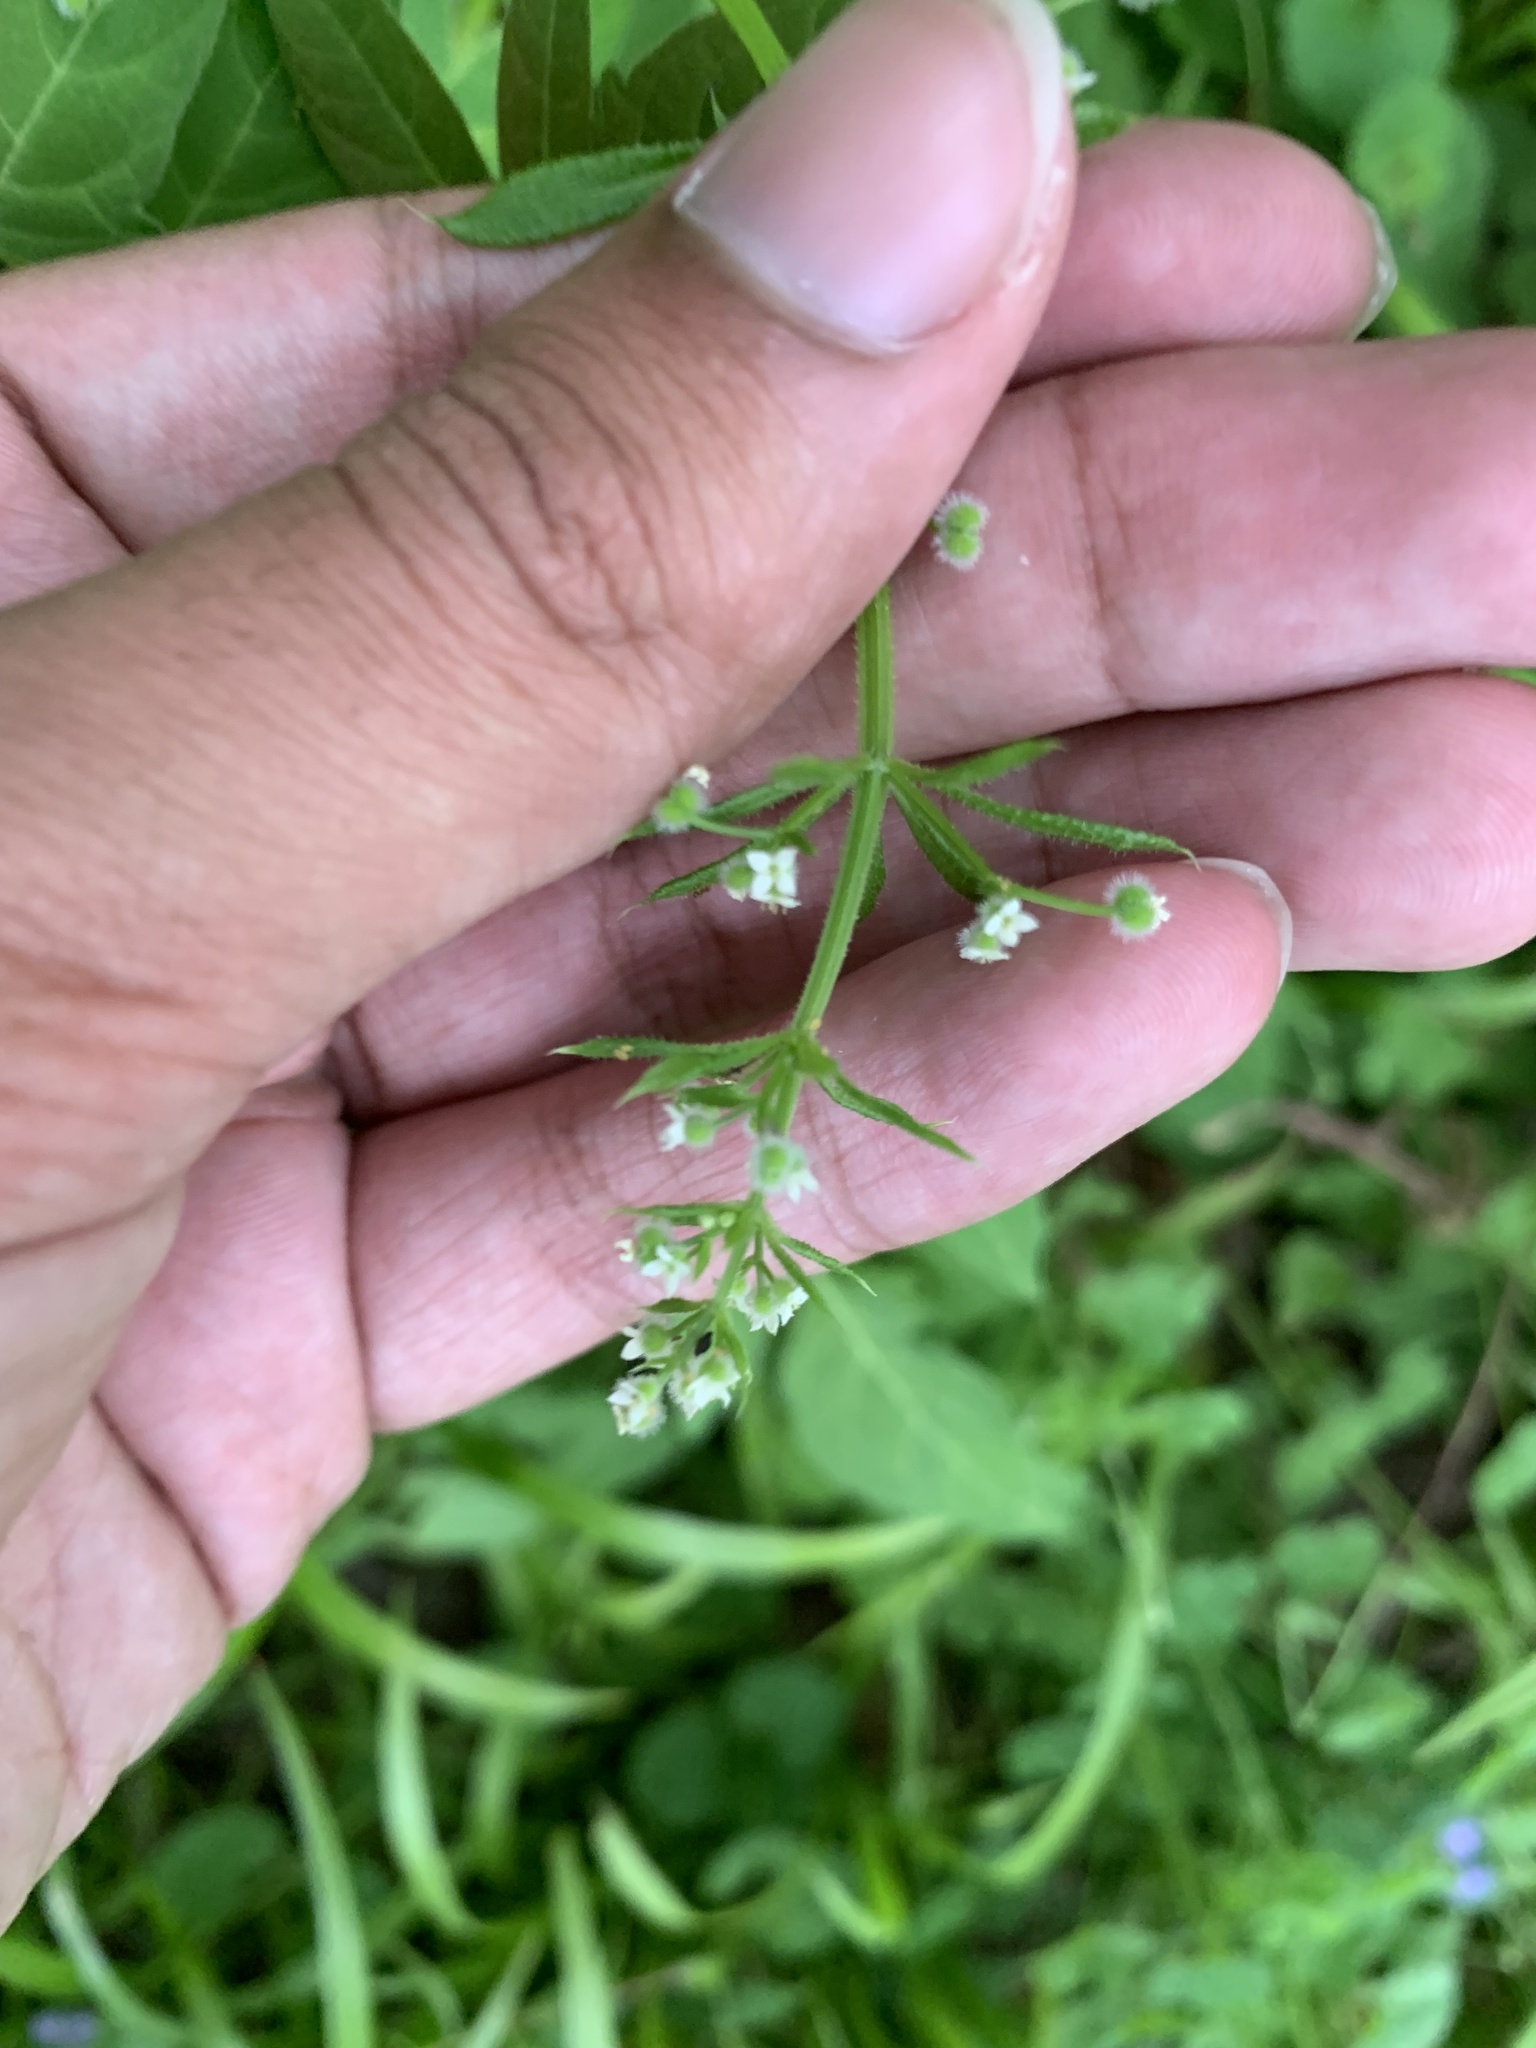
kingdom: Plantae
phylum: Tracheophyta
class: Magnoliopsida
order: Gentianales
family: Rubiaceae
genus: Galium
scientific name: Galium aparine
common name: Cleavers
